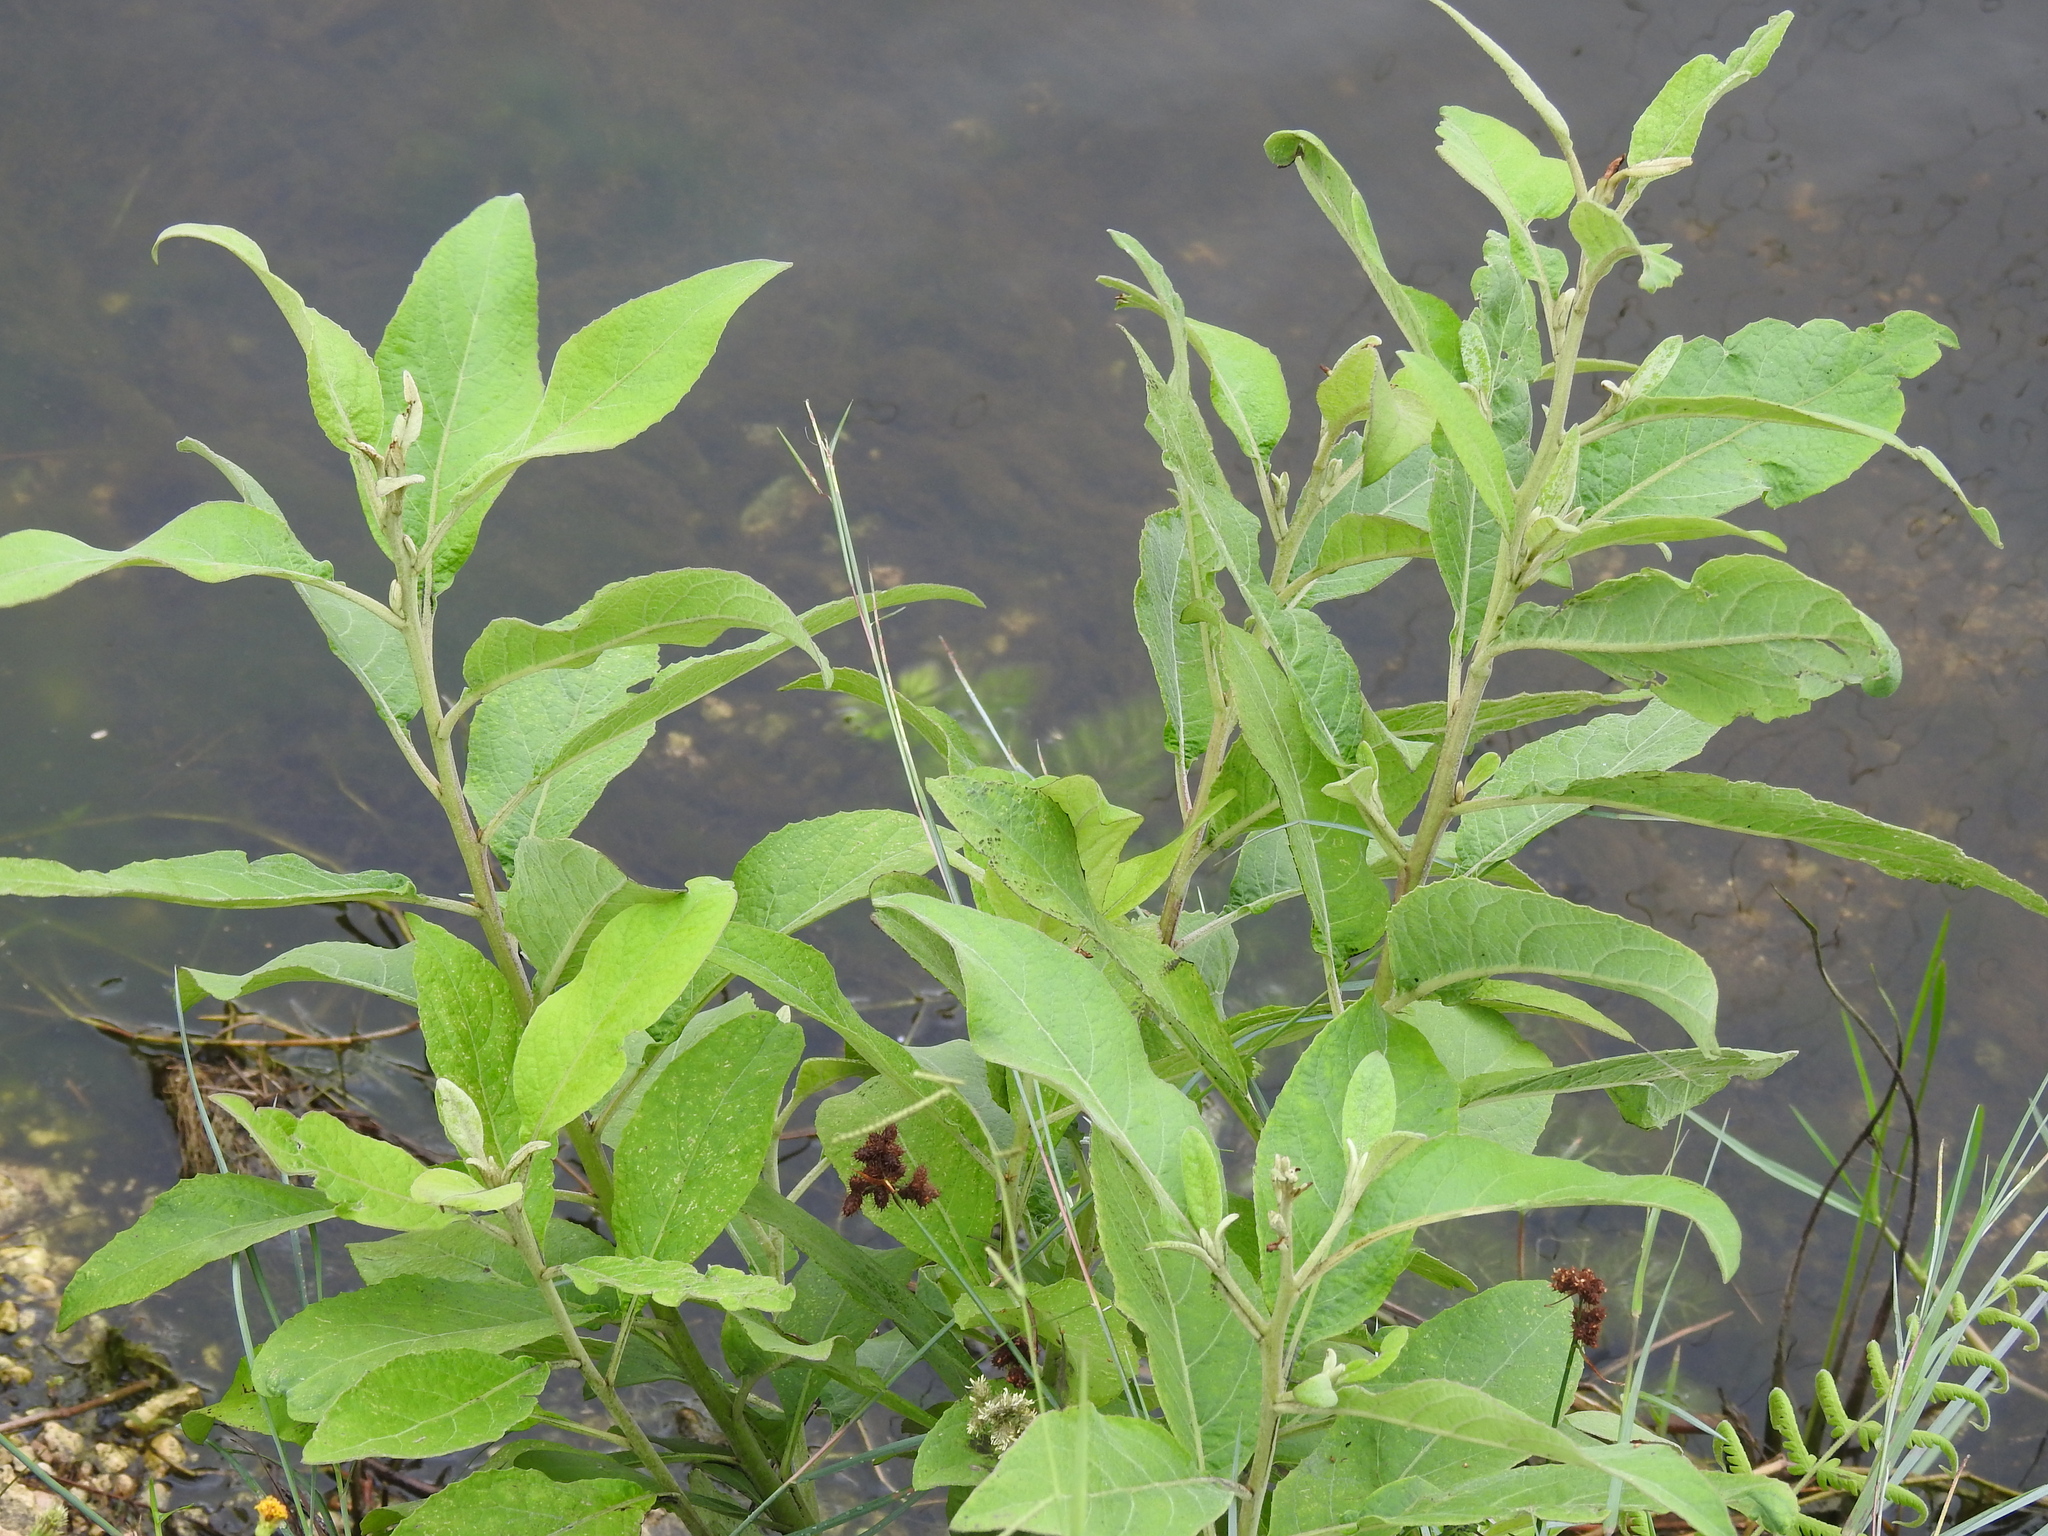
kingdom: Plantae
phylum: Tracheophyta
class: Magnoliopsida
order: Asterales
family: Asteraceae
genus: Pluchea
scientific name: Pluchea carolinensis
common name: Marsh fleabane
